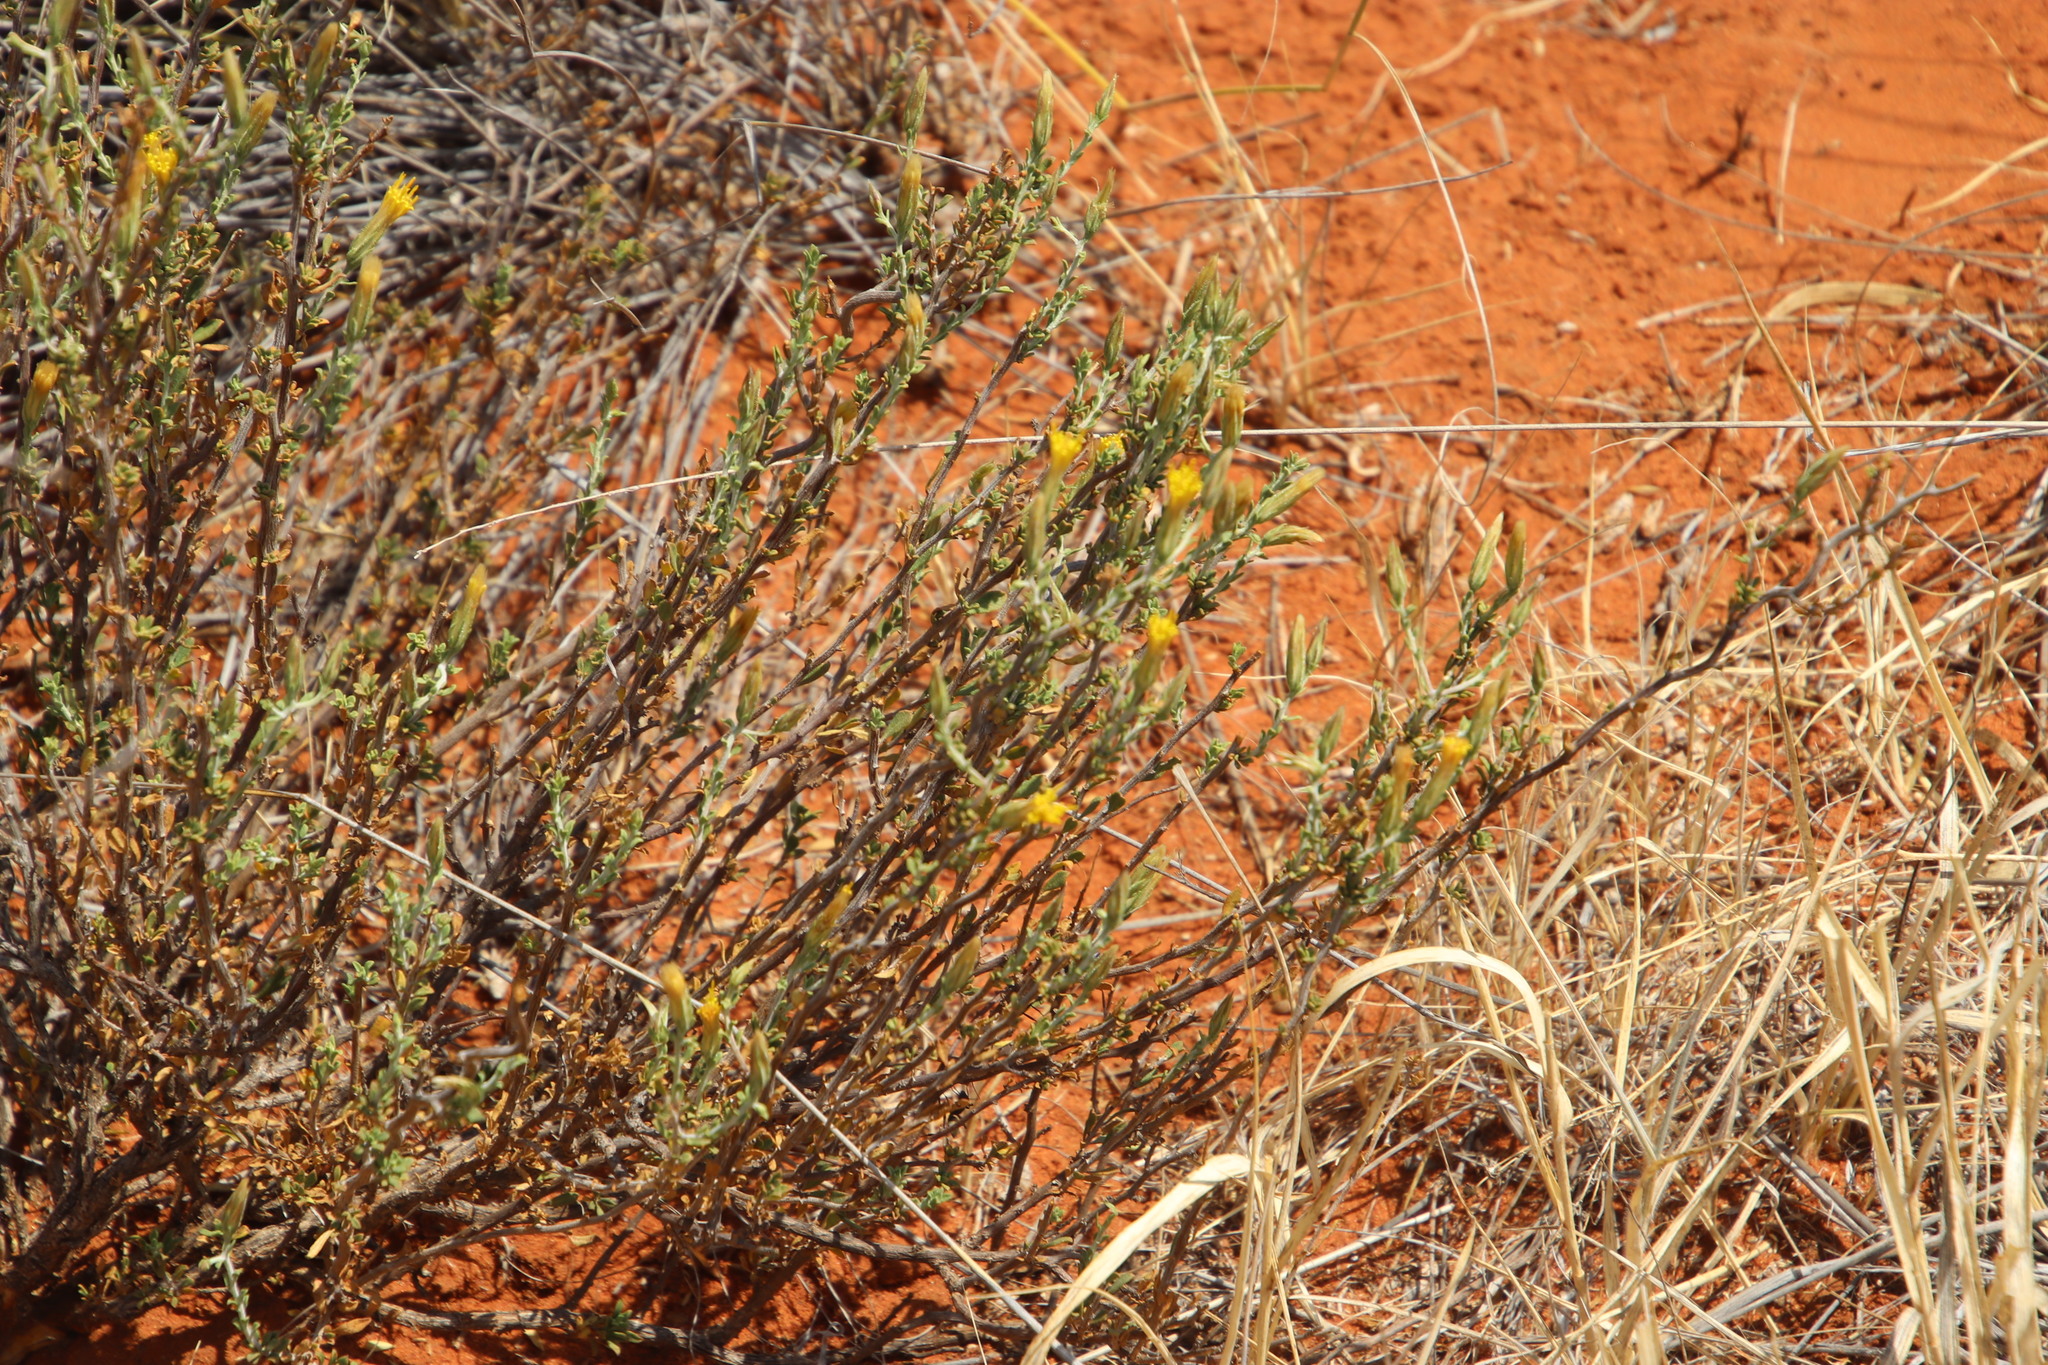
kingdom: Plantae
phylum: Tracheophyta
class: Magnoliopsida
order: Asterales
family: Asteraceae
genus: Pegolettia
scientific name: Pegolettia retrofracta
